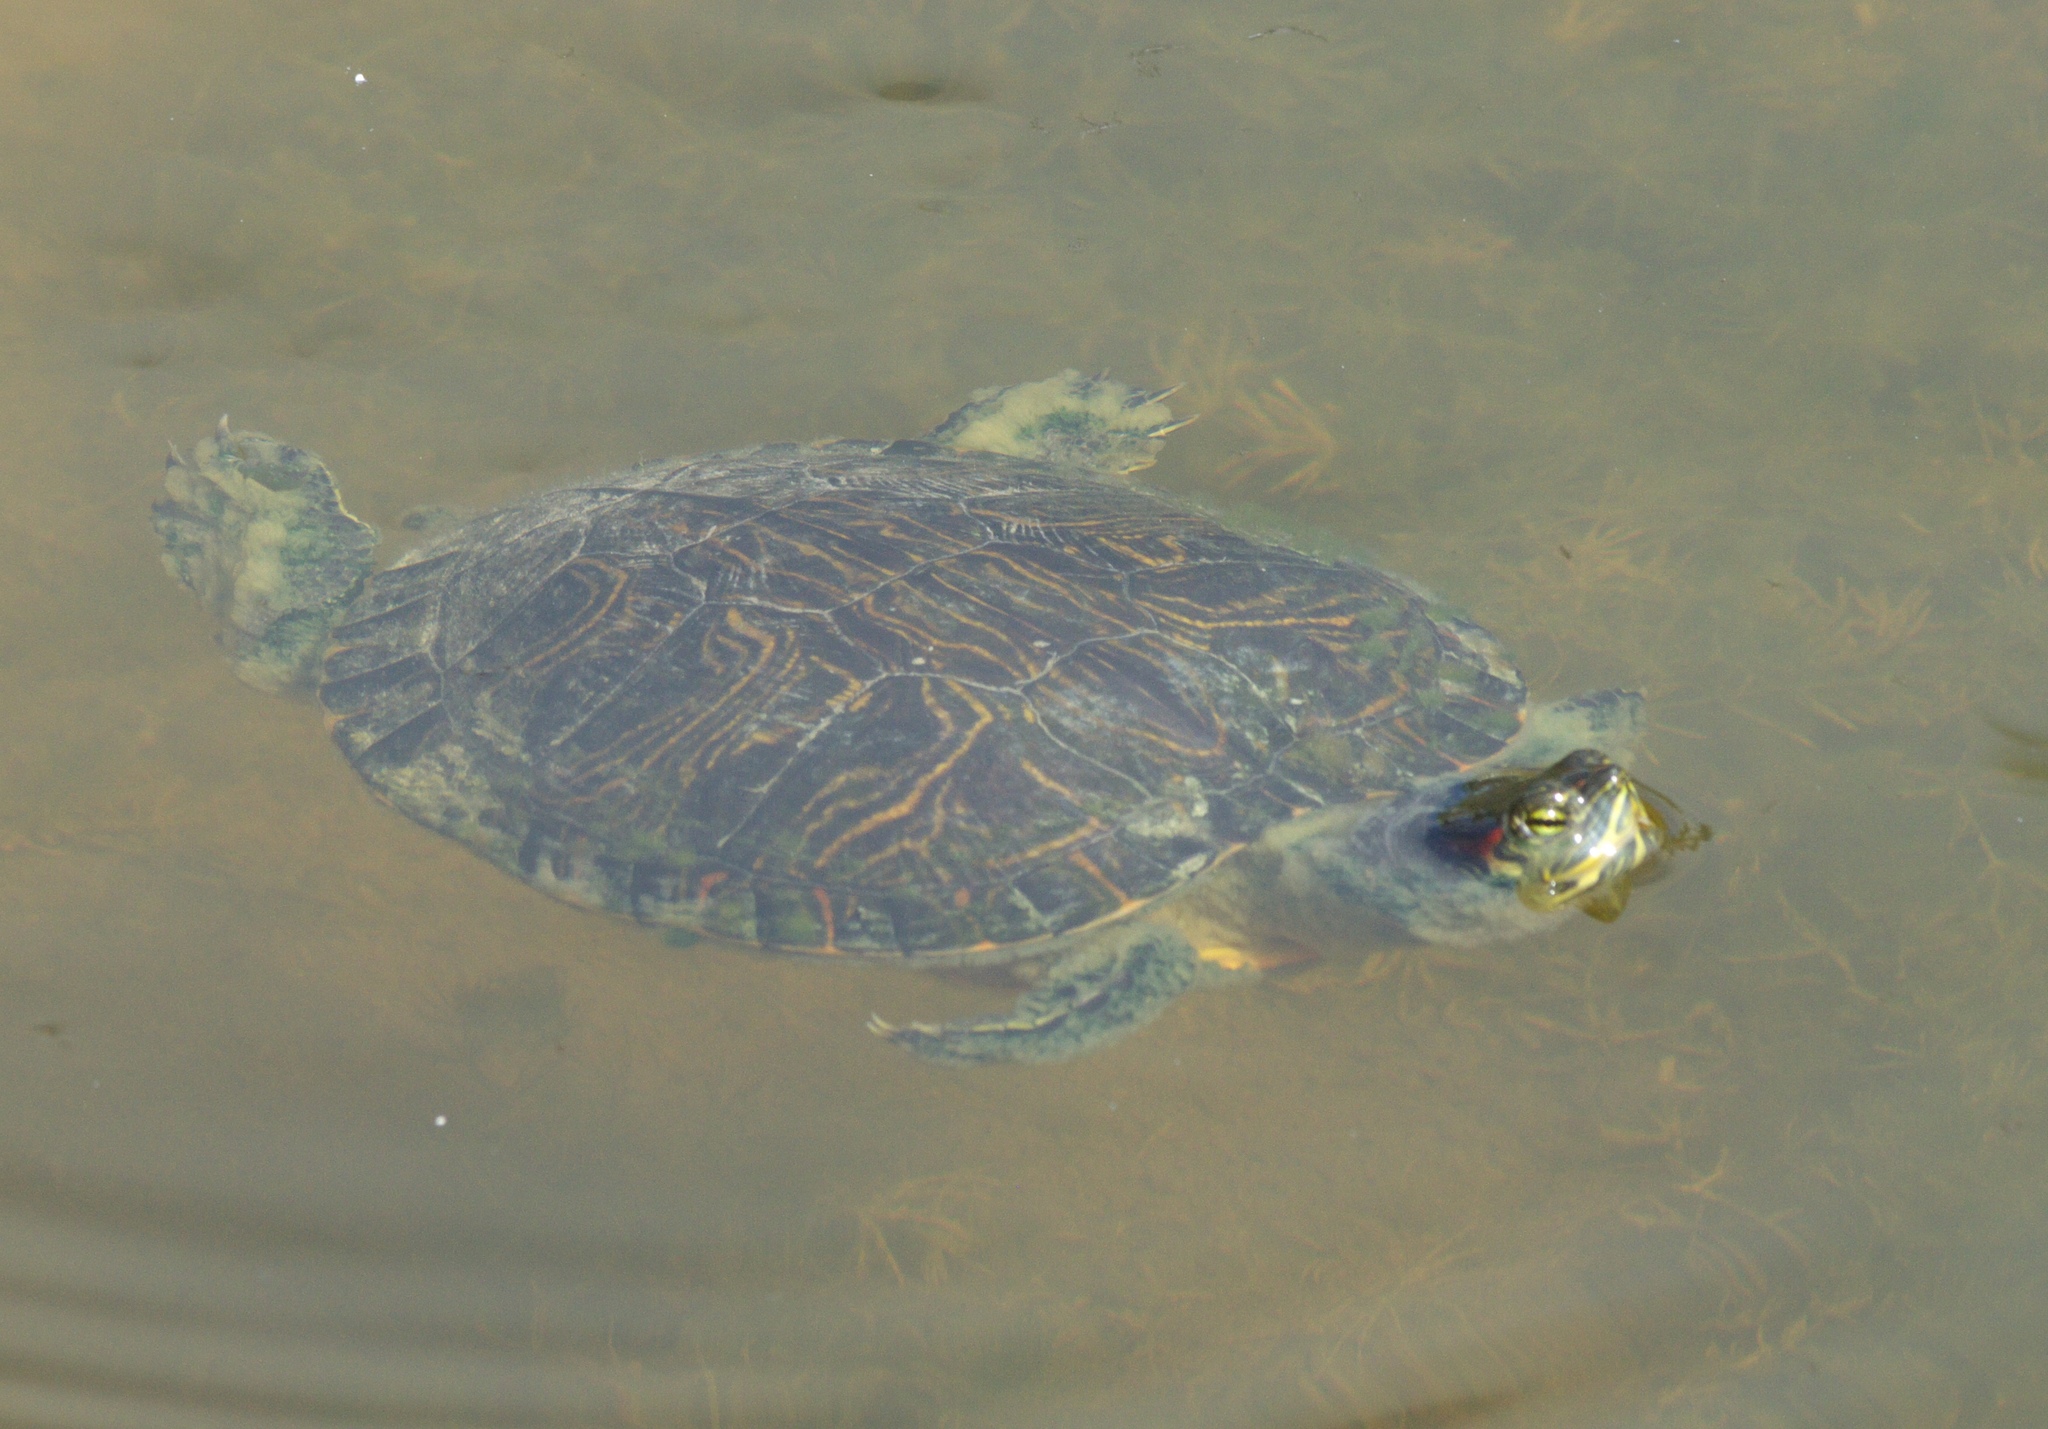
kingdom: Animalia
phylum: Chordata
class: Testudines
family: Emydidae
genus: Trachemys
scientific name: Trachemys scripta
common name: Slider
